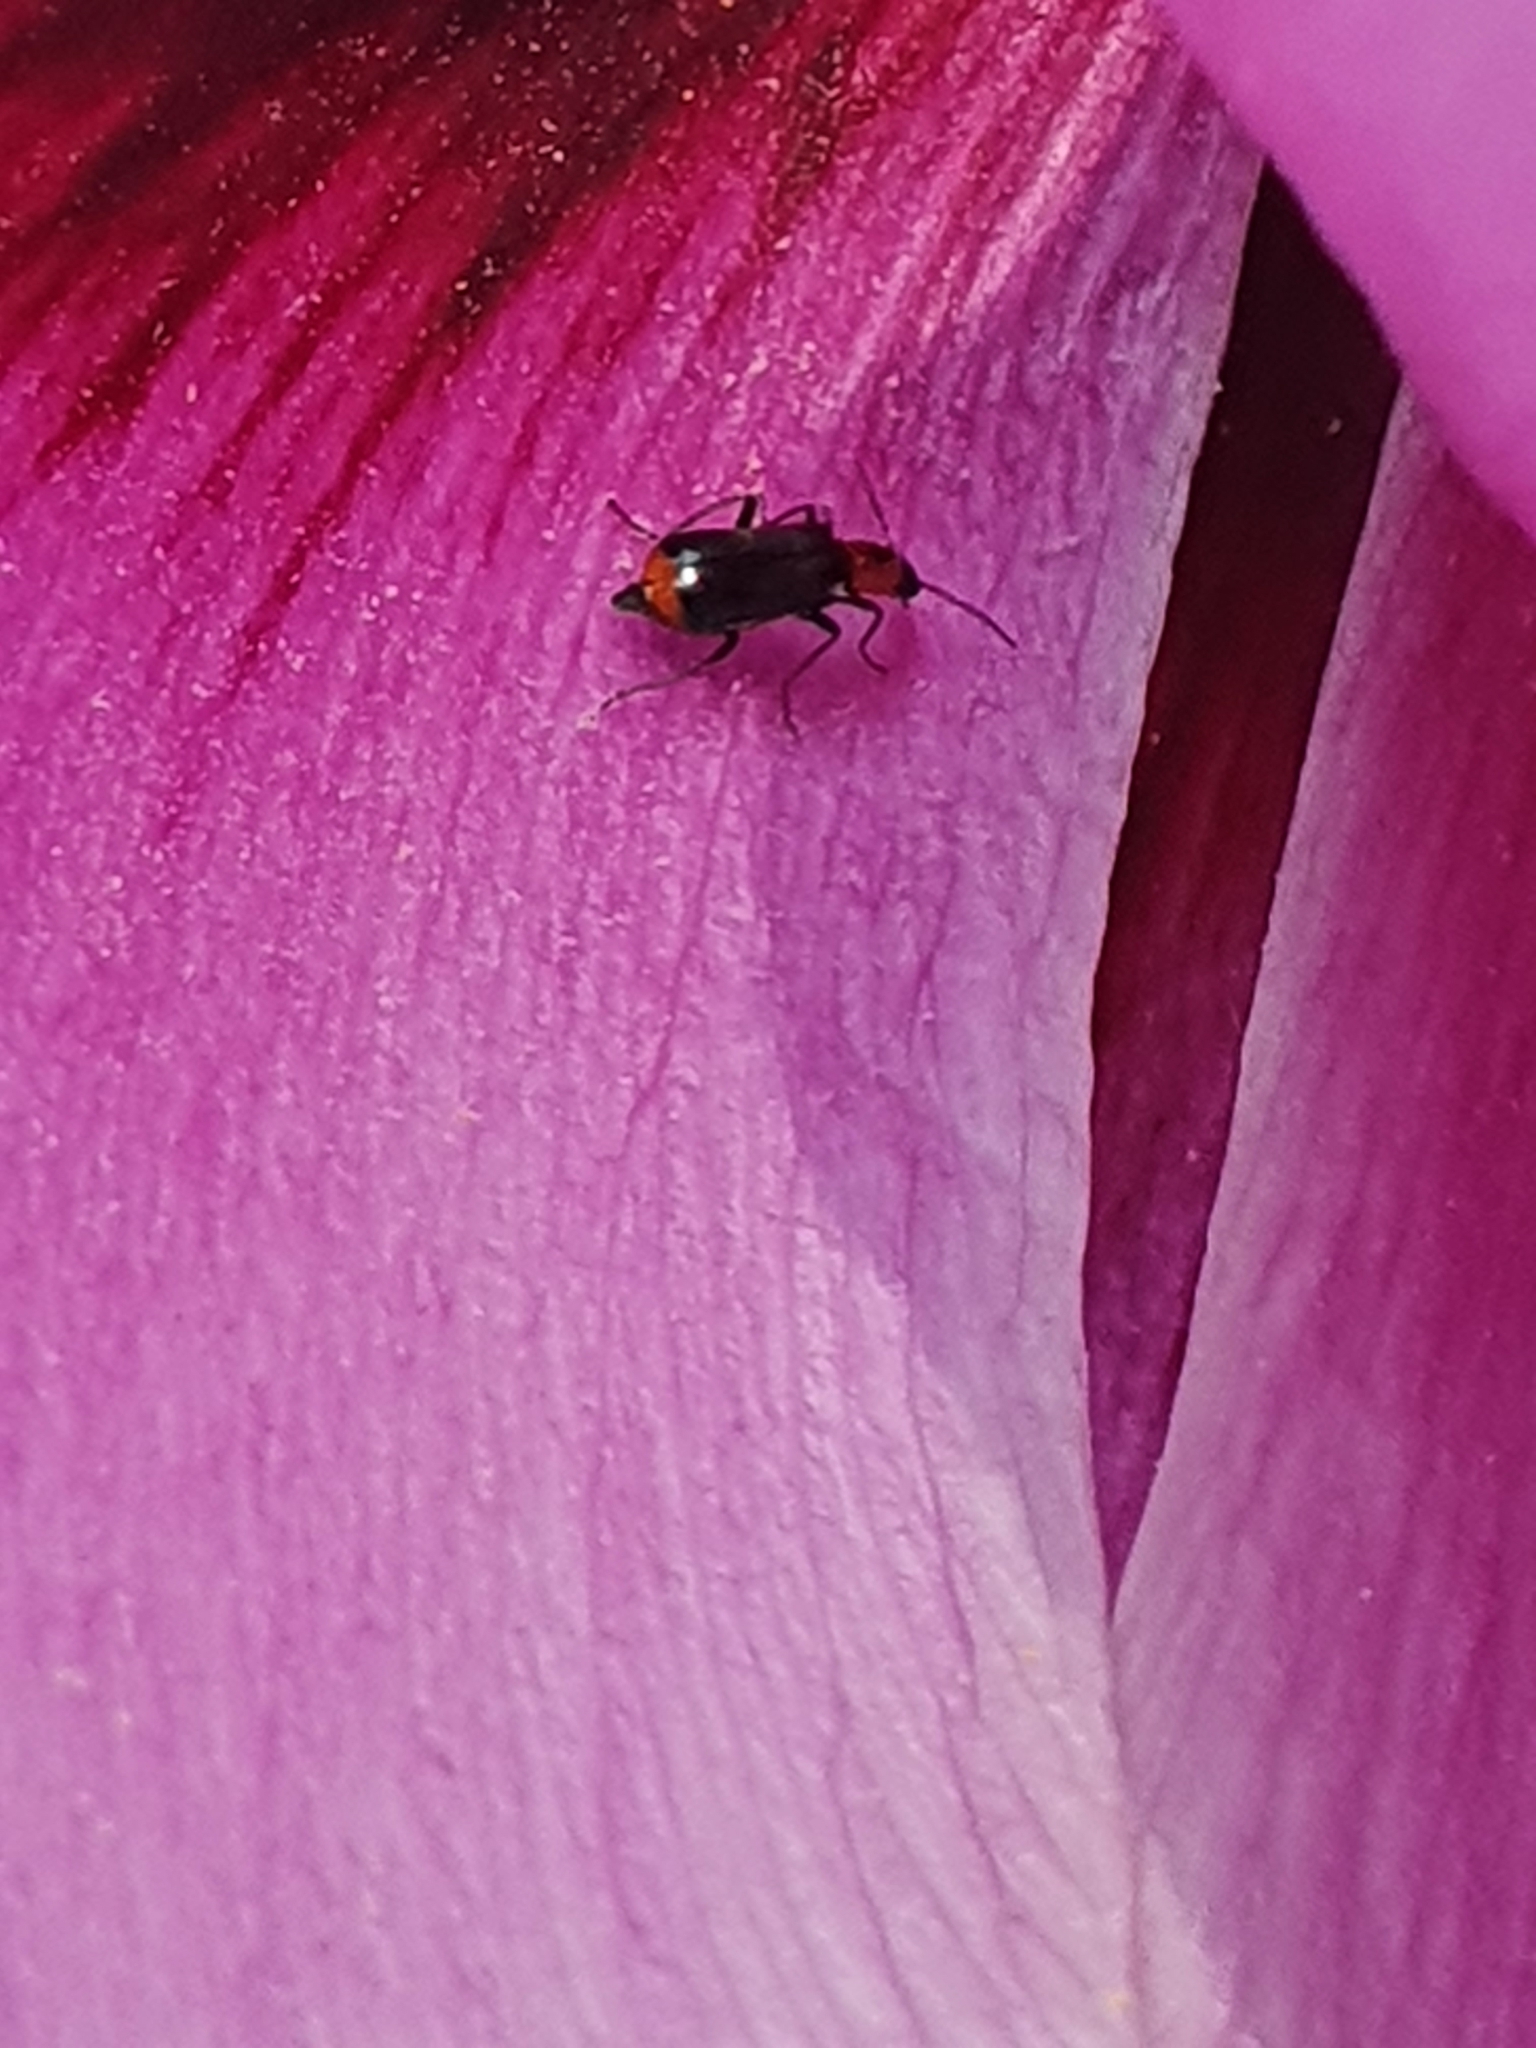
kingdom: Animalia
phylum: Arthropoda
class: Insecta
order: Coleoptera
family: Malachiidae
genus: Attalus
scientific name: Attalus minimus
